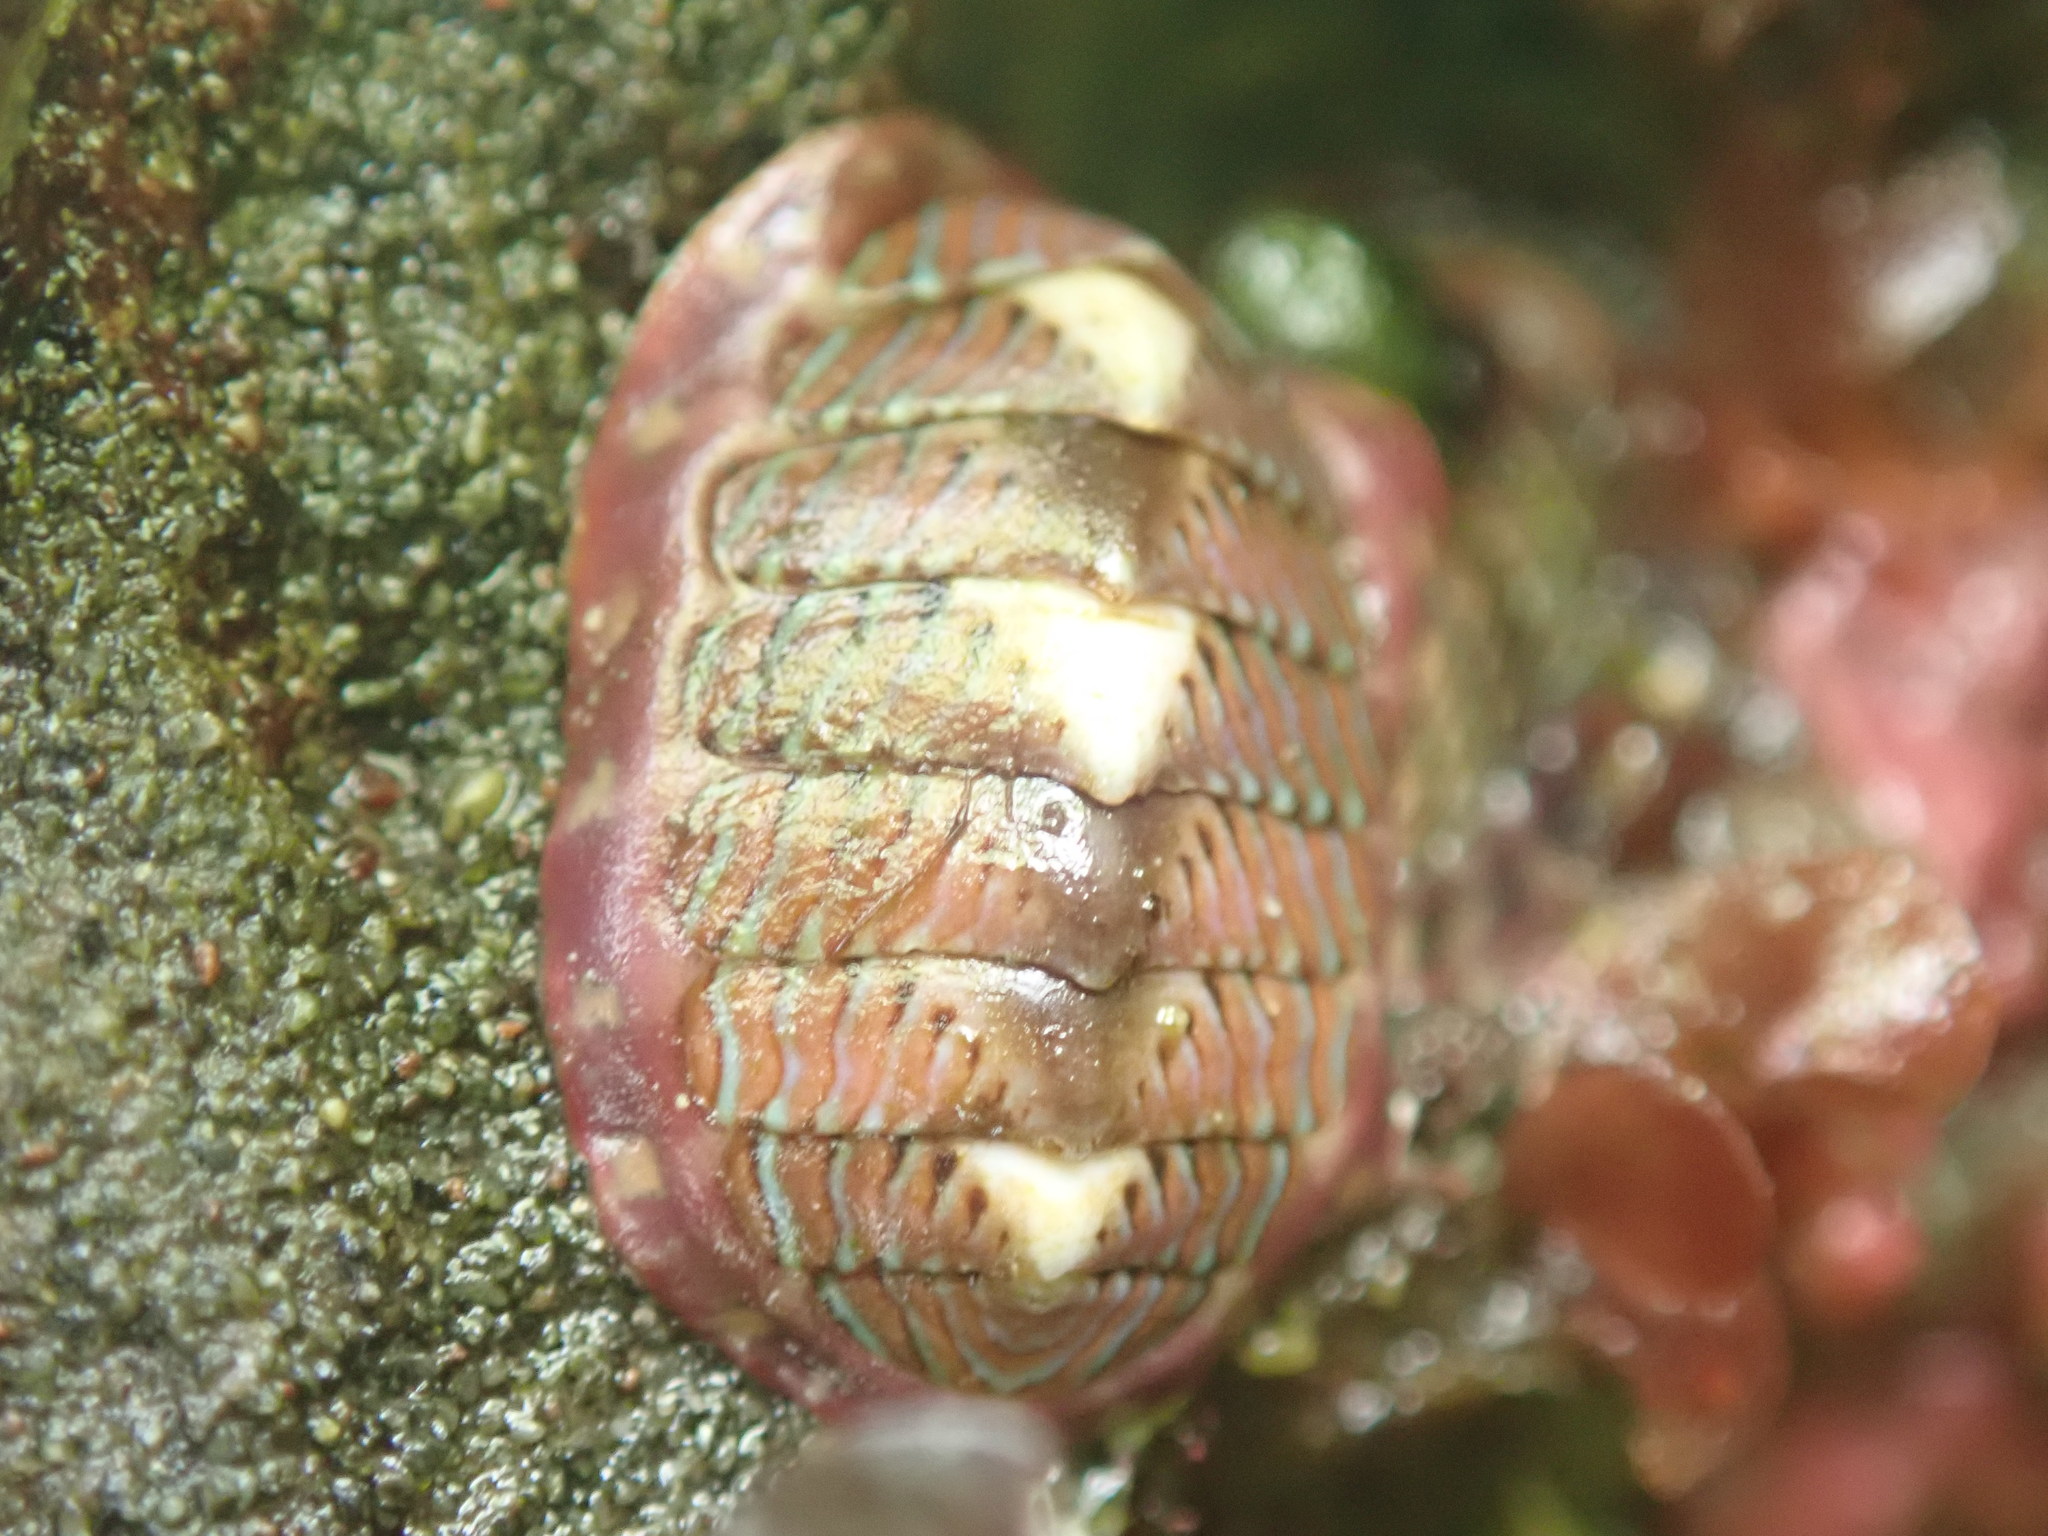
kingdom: Animalia
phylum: Mollusca
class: Polyplacophora
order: Chitonida
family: Tonicellidae
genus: Tonicella
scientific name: Tonicella lineata
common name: Lined chiton
